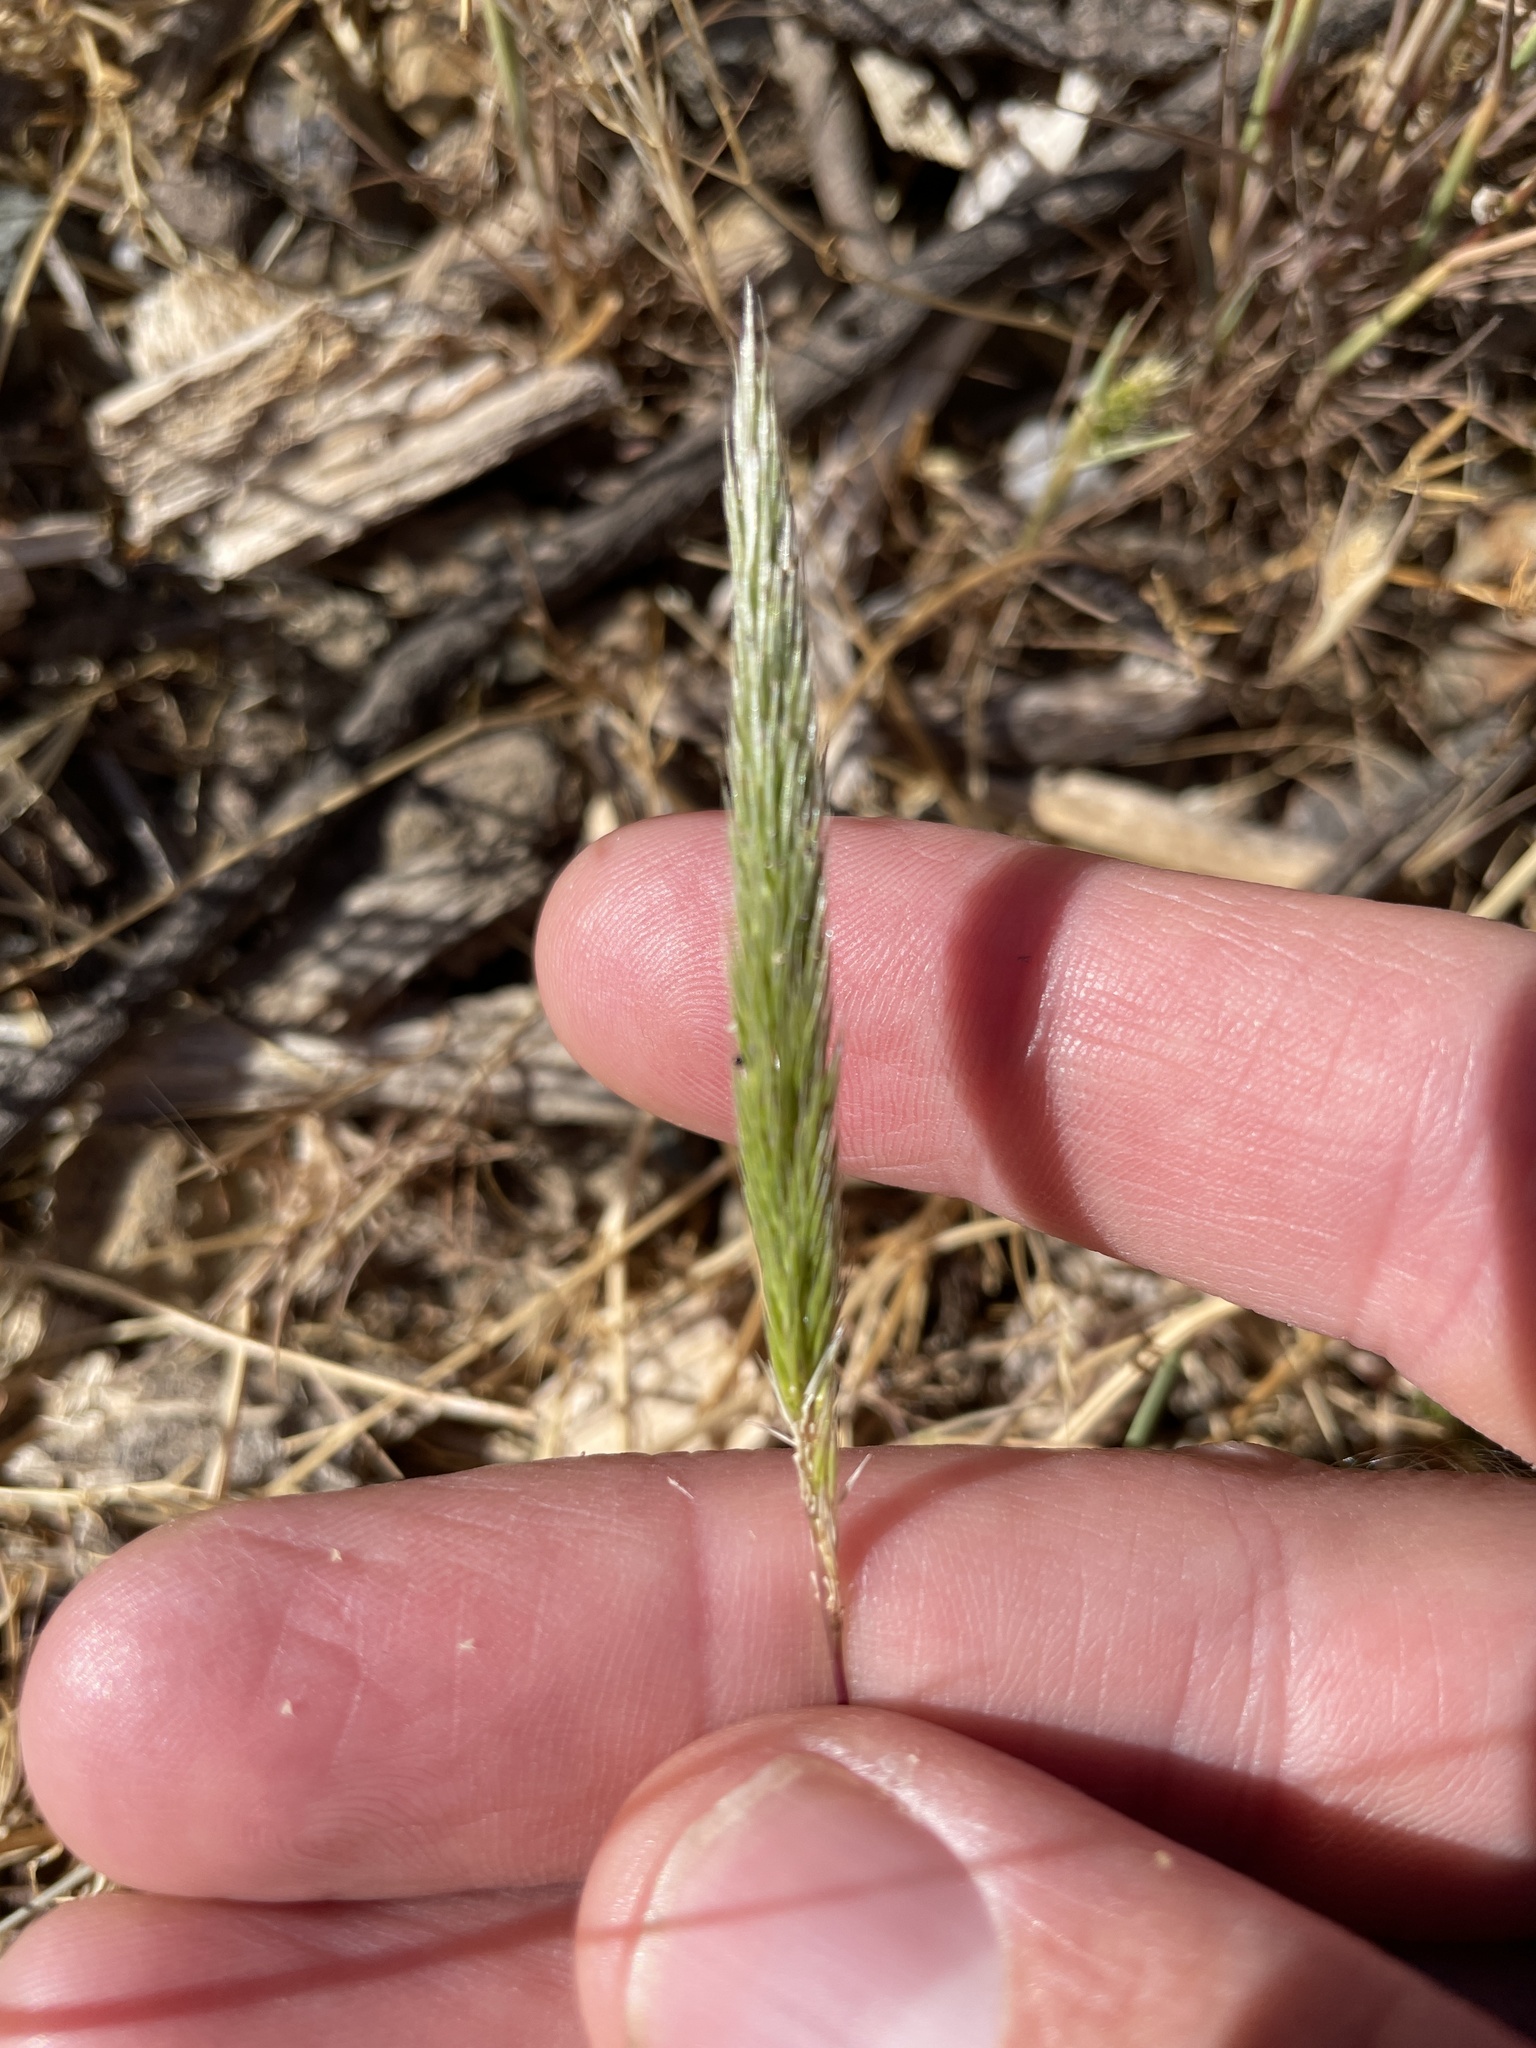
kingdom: Plantae
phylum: Tracheophyta
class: Liliopsida
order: Poales
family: Poaceae
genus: Gastridium
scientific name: Gastridium phleoides
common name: Nit grass
